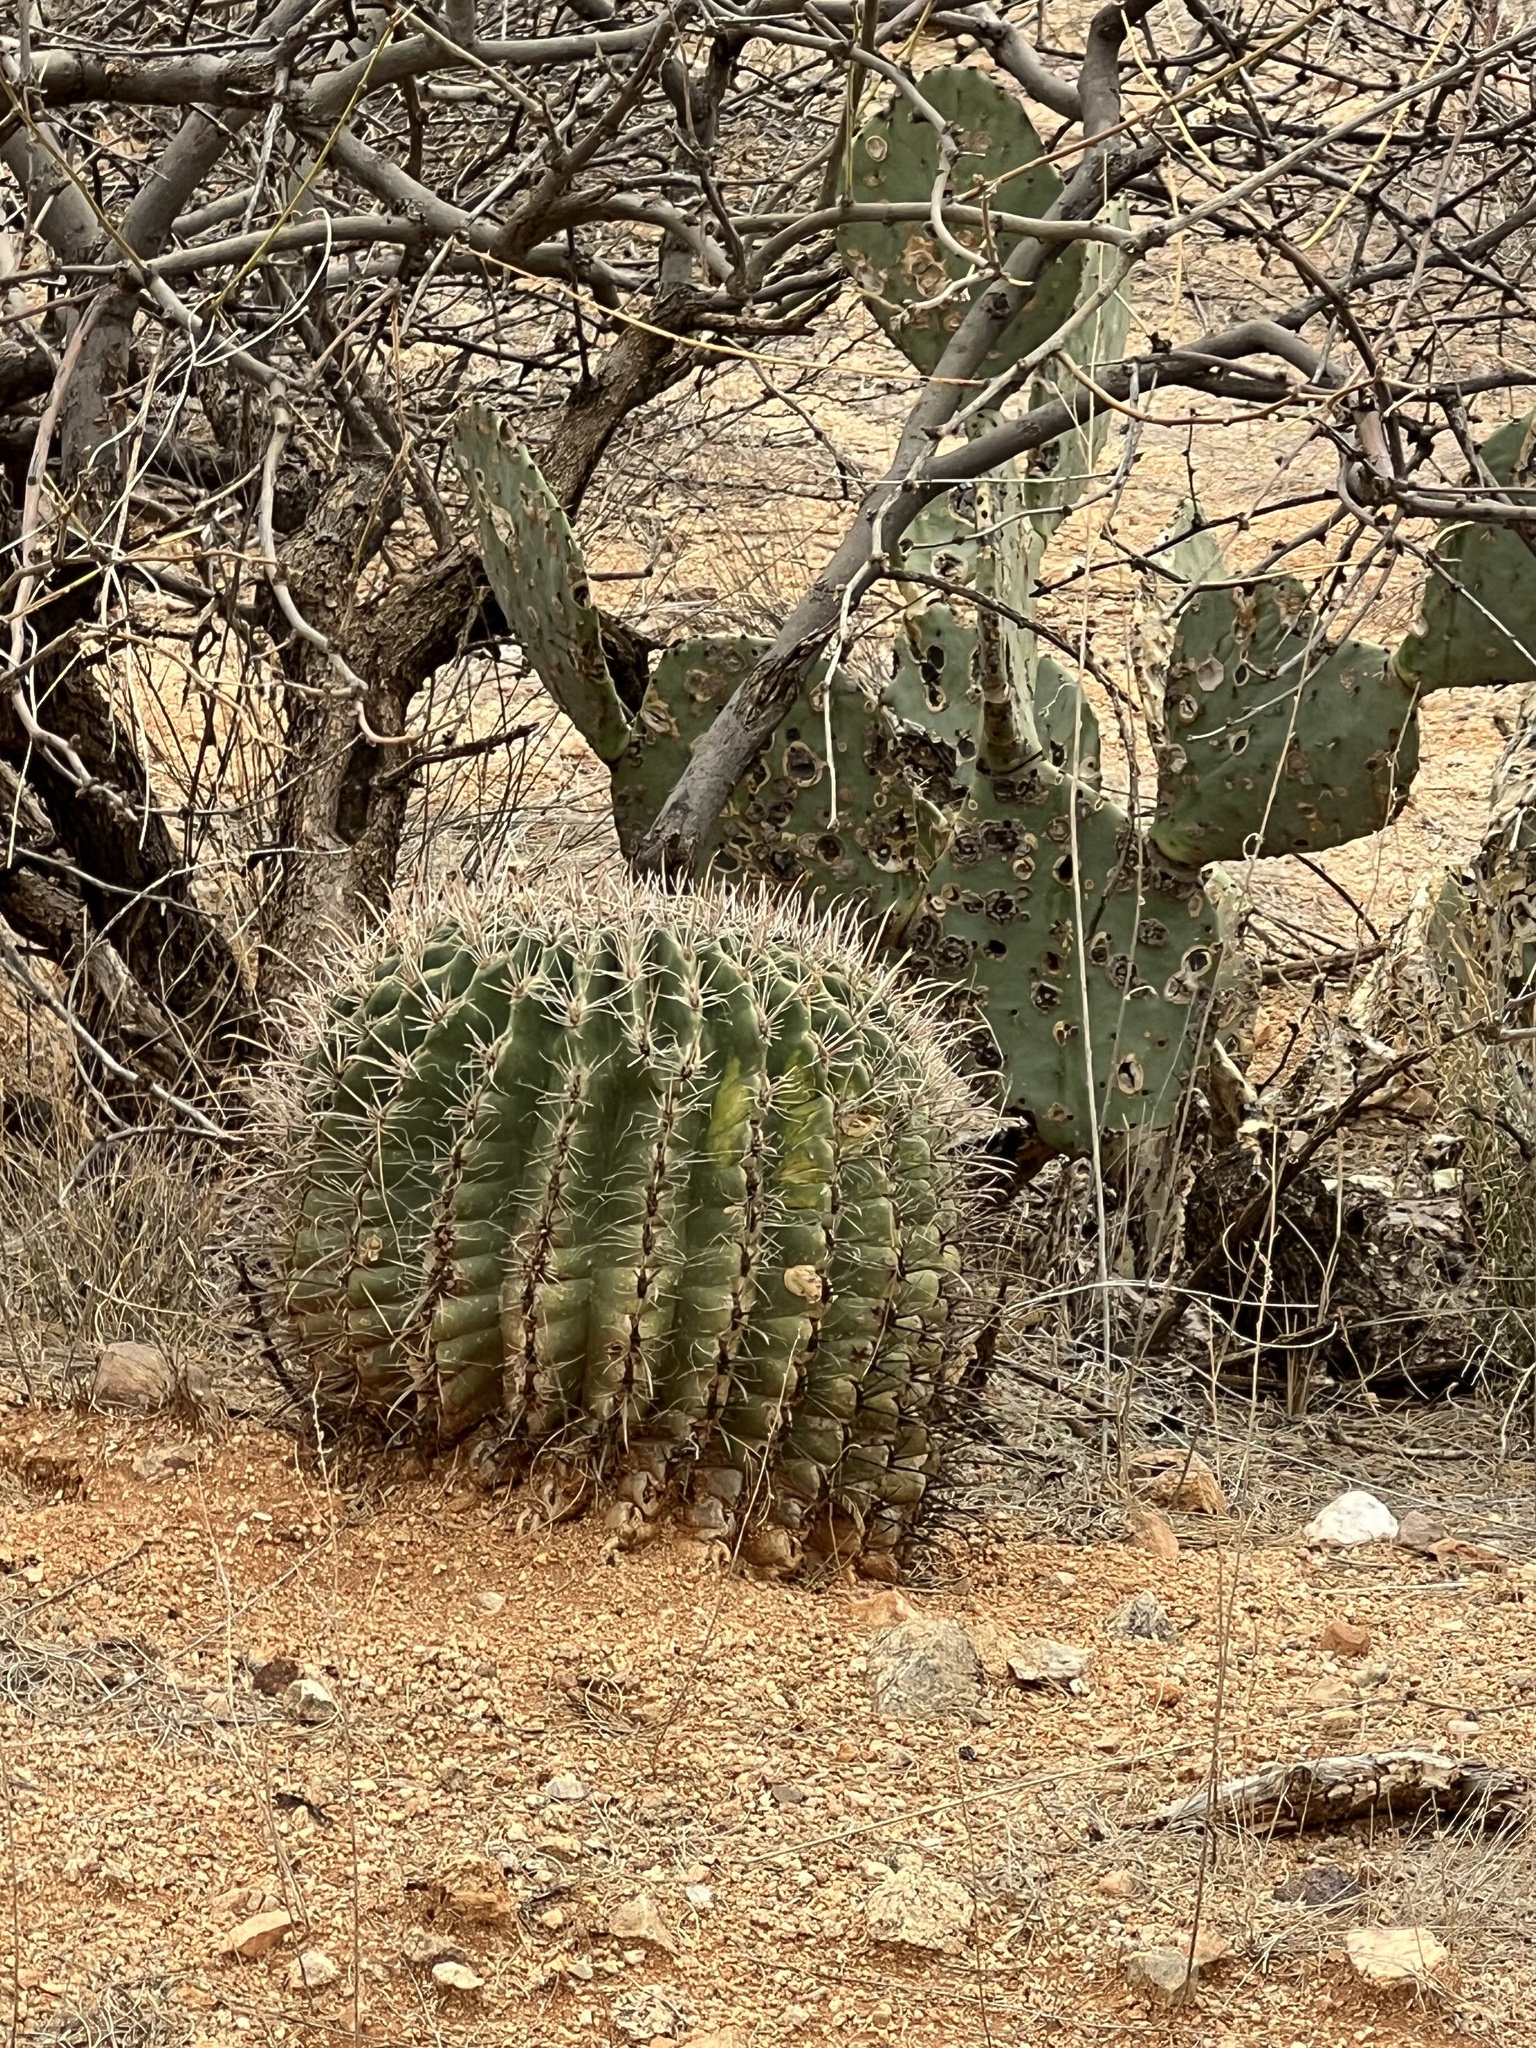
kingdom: Plantae
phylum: Tracheophyta
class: Magnoliopsida
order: Caryophyllales
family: Cactaceae
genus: Ferocactus
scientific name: Ferocactus wislizeni
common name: Candy barrel cactus
